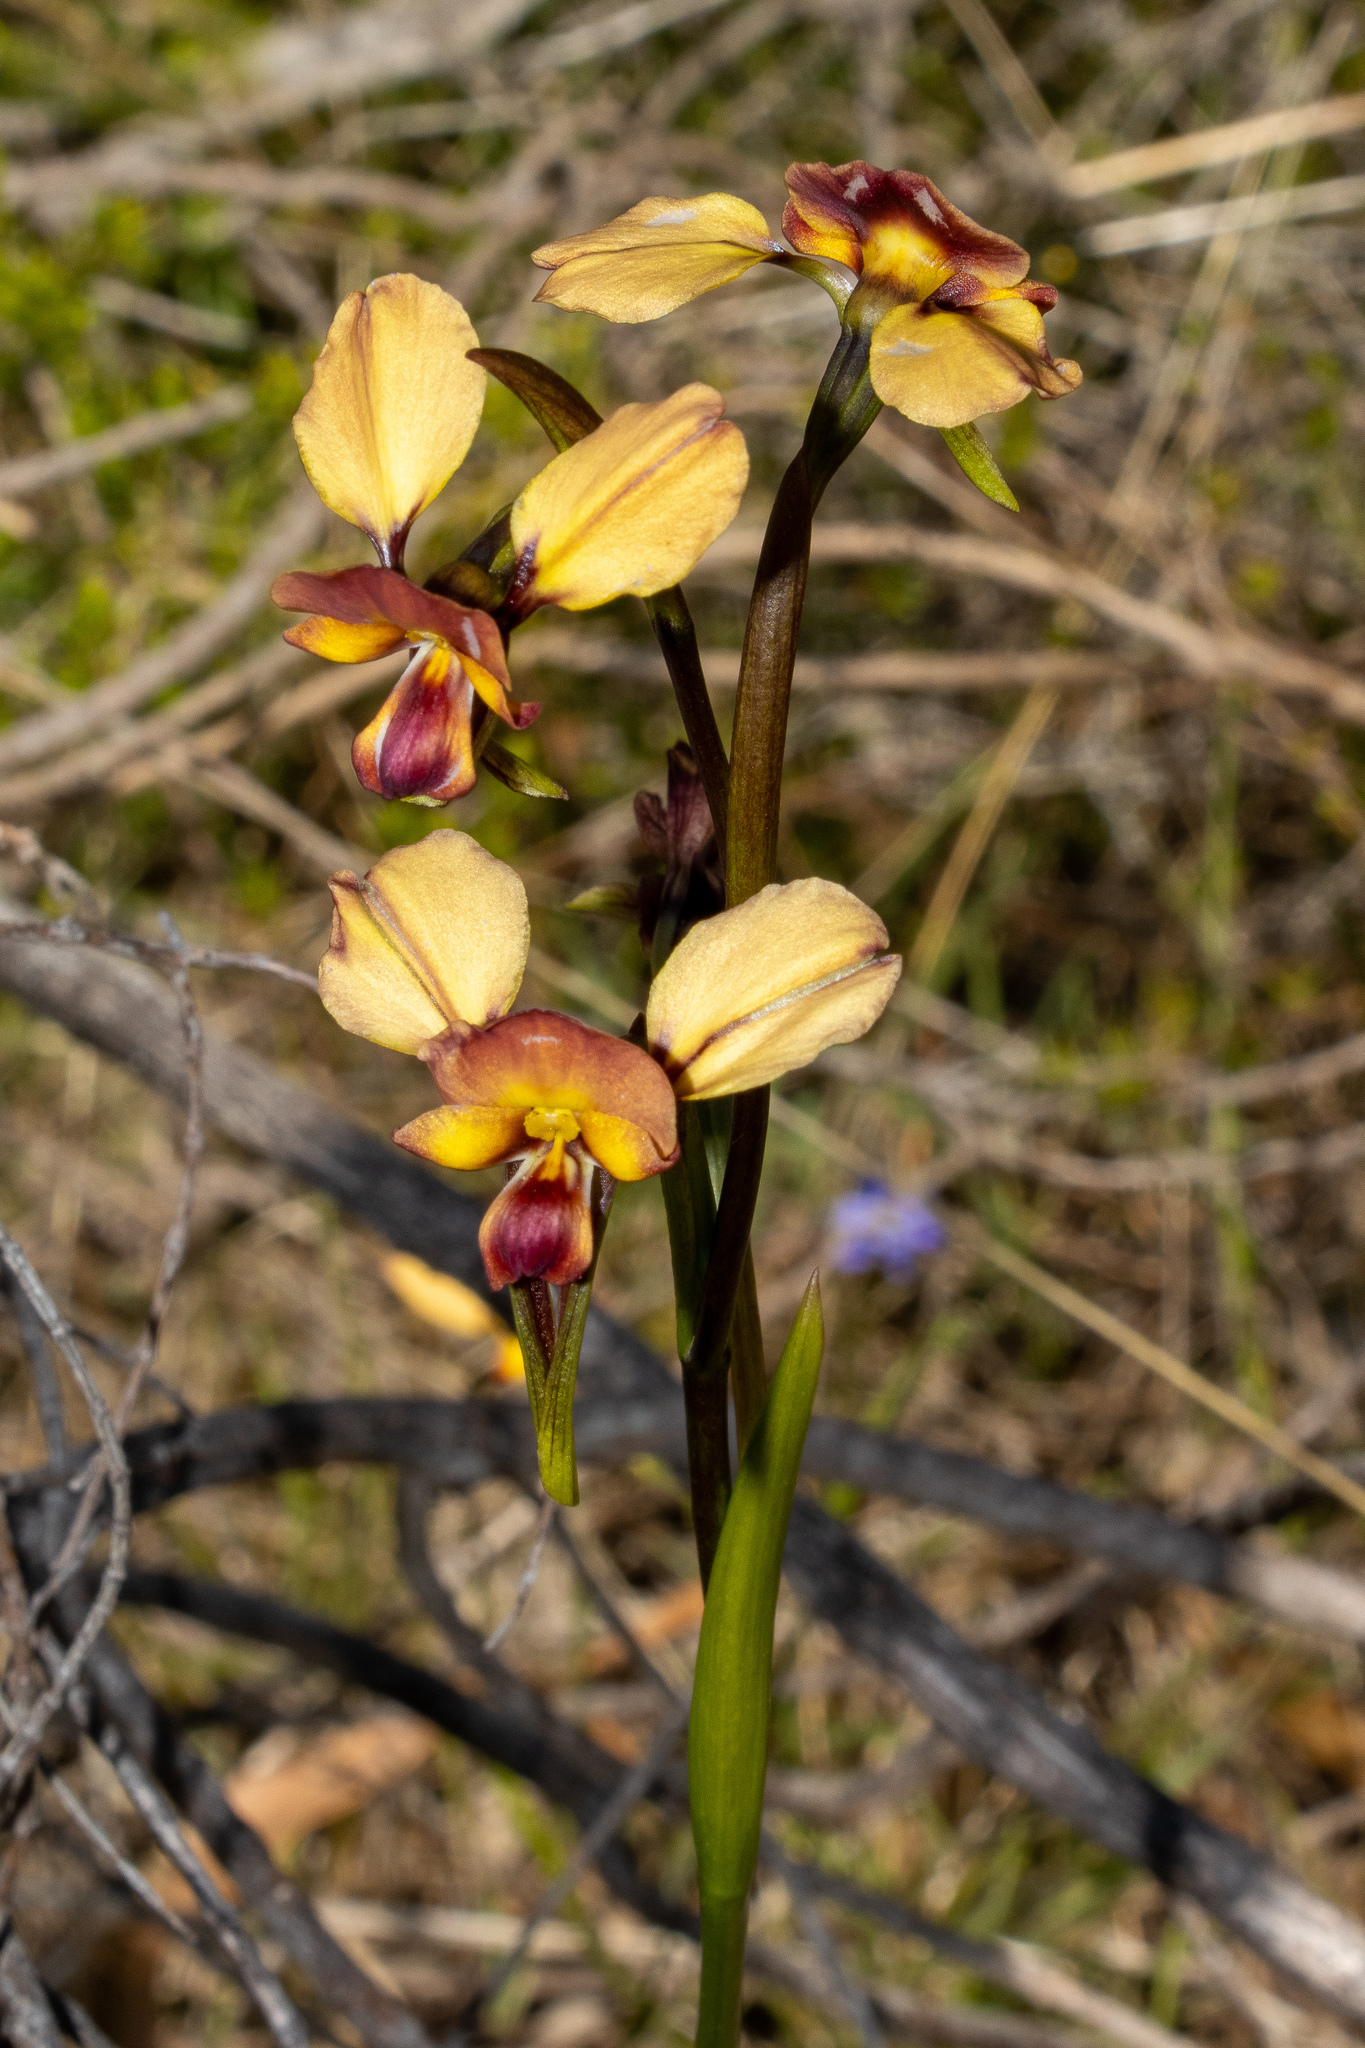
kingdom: Plantae
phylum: Tracheophyta
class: Liliopsida
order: Asparagales
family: Orchidaceae
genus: Diuris
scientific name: Diuris orientis
